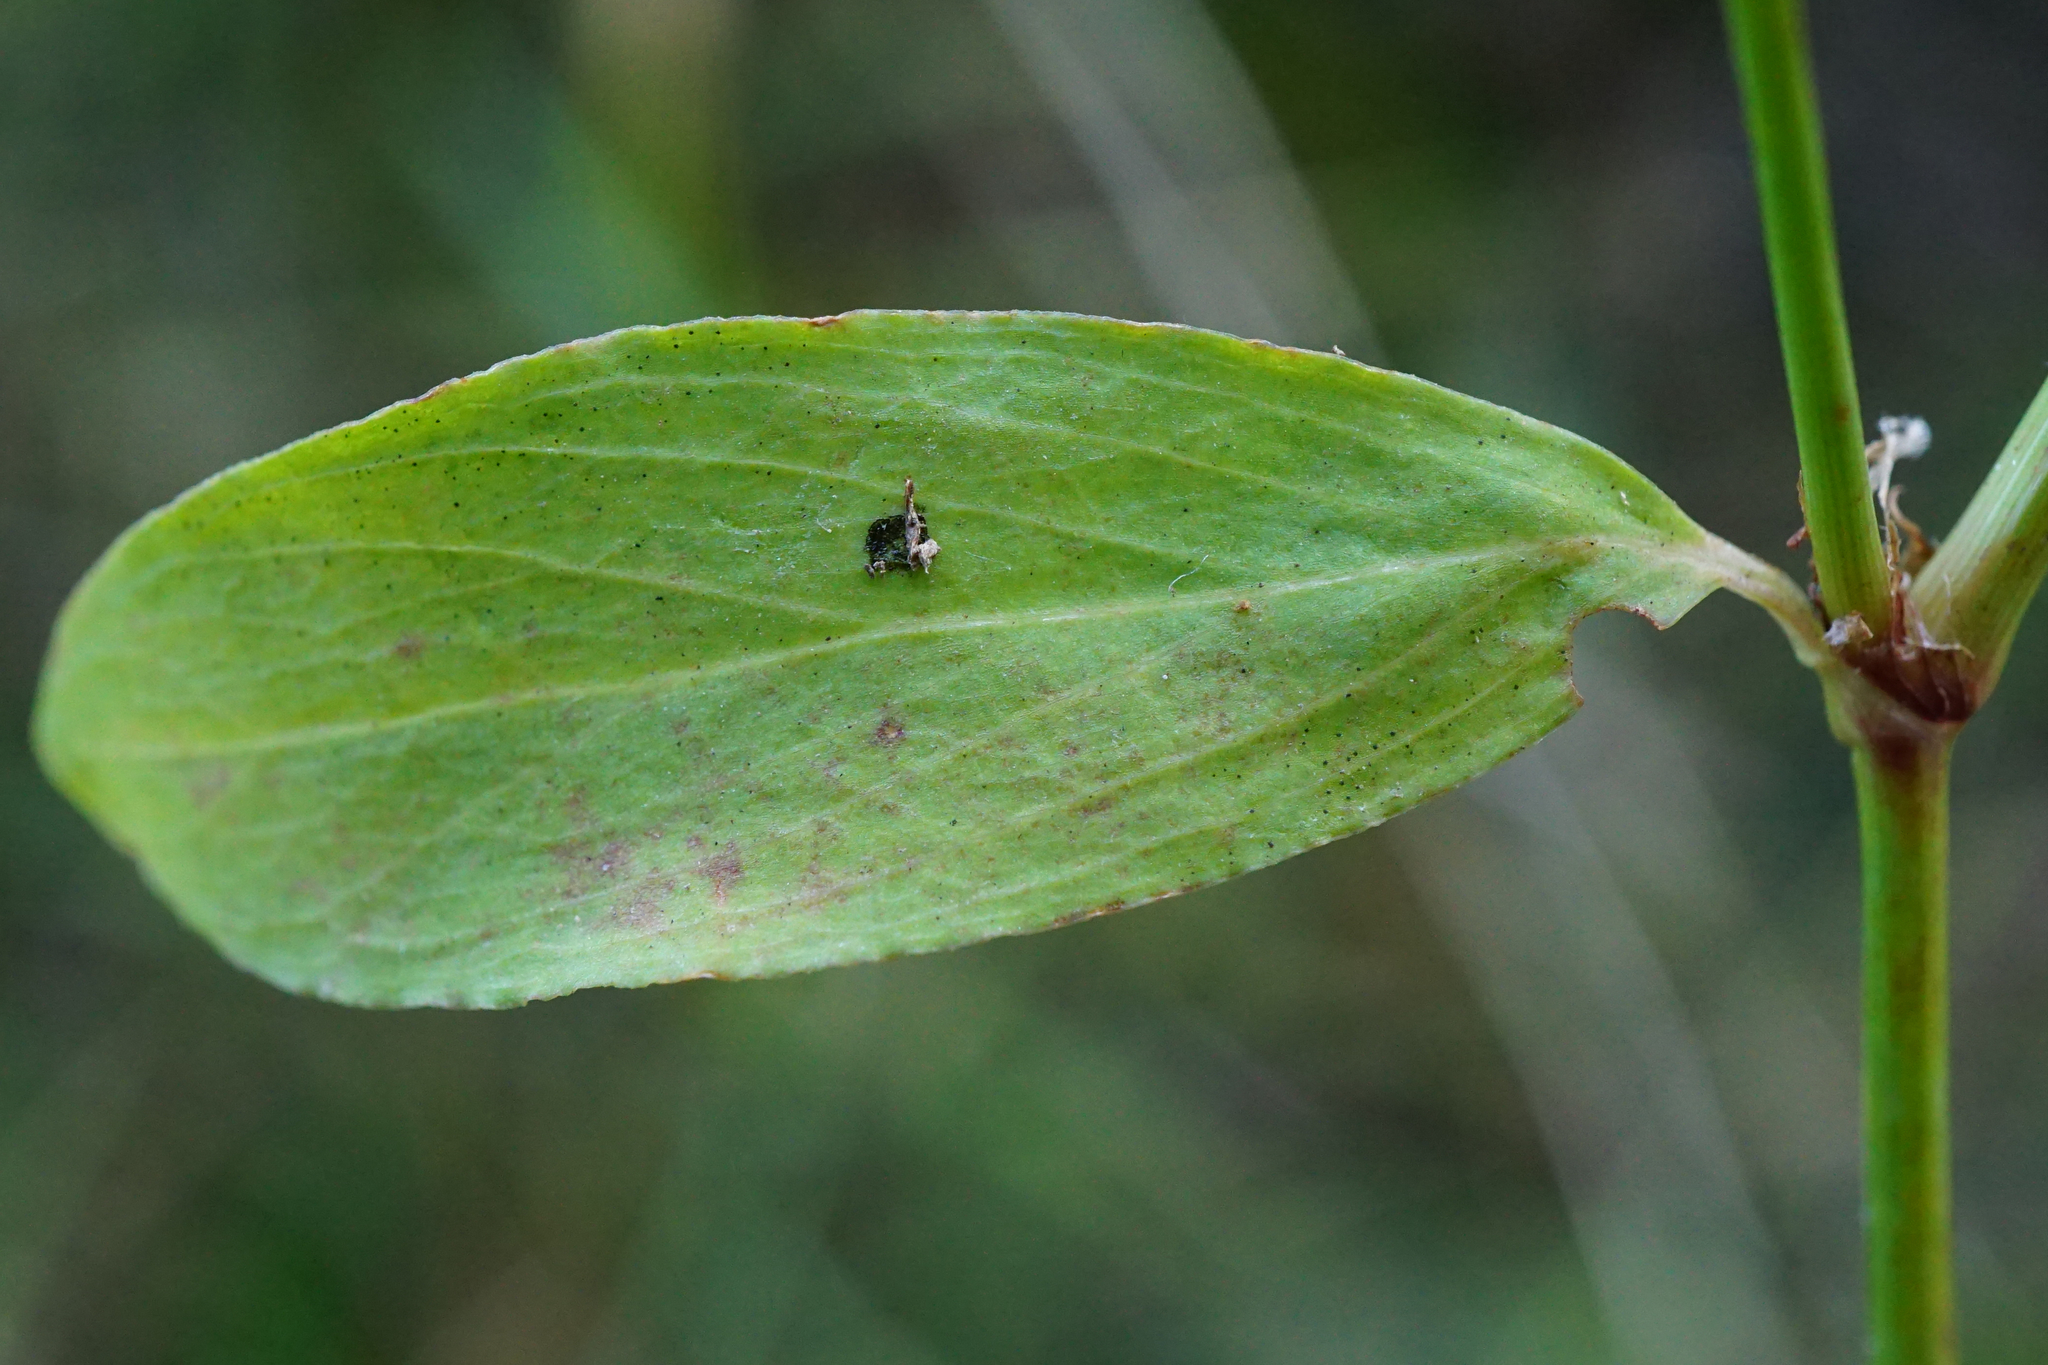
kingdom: Plantae
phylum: Tracheophyta
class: Magnoliopsida
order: Caryophyllales
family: Polygonaceae
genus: Polygonum
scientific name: Polygonum aviculare
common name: Prostrate knotweed
